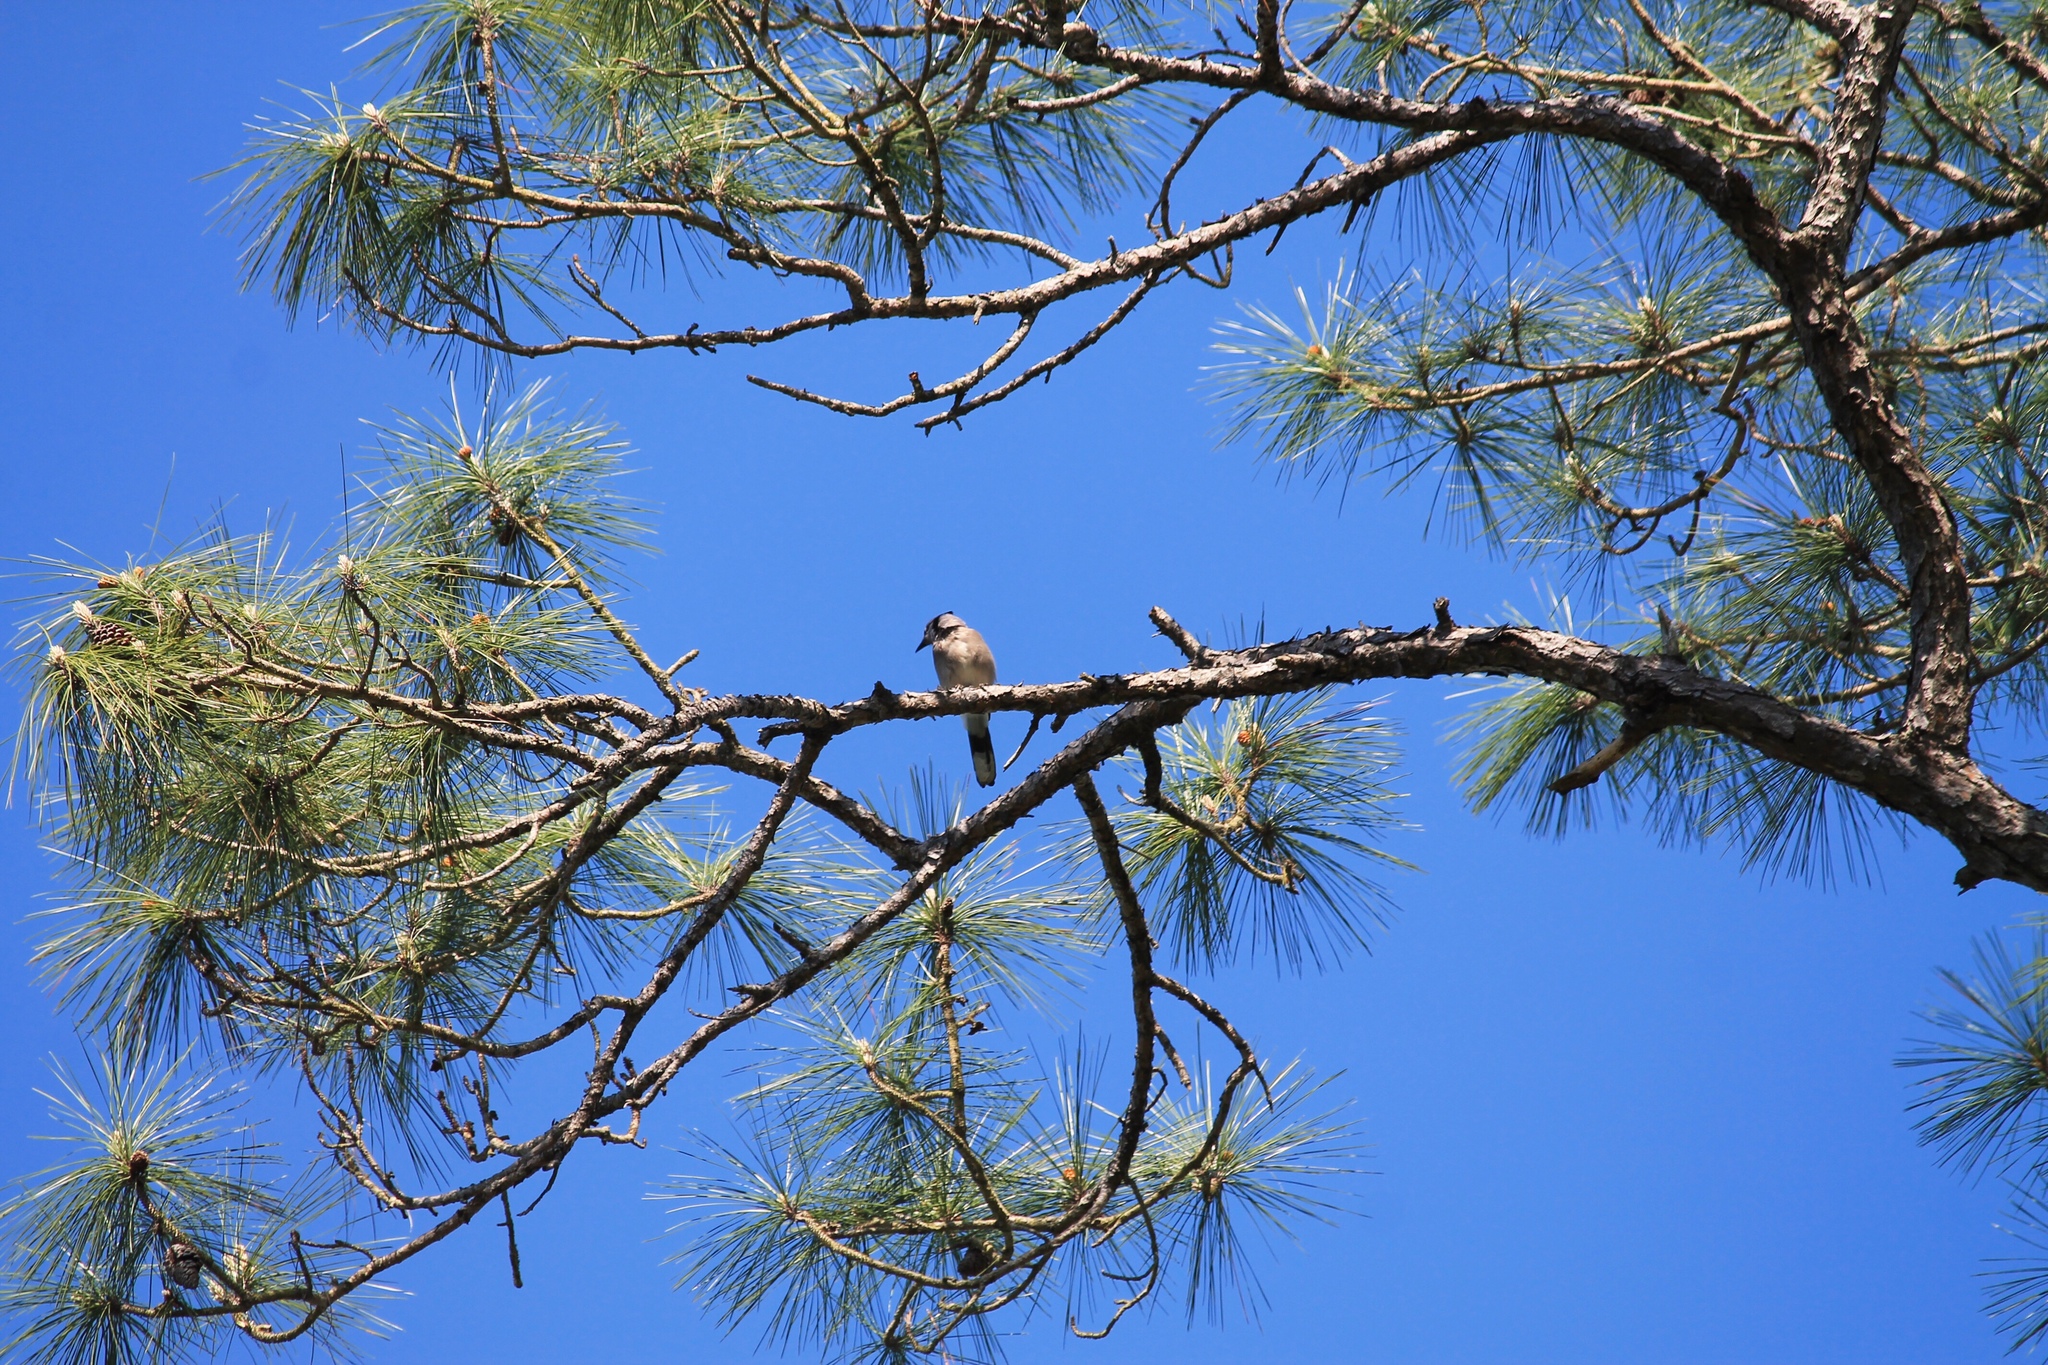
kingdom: Animalia
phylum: Chordata
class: Aves
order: Passeriformes
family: Corvidae
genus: Cyanocitta
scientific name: Cyanocitta cristata
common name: Blue jay
